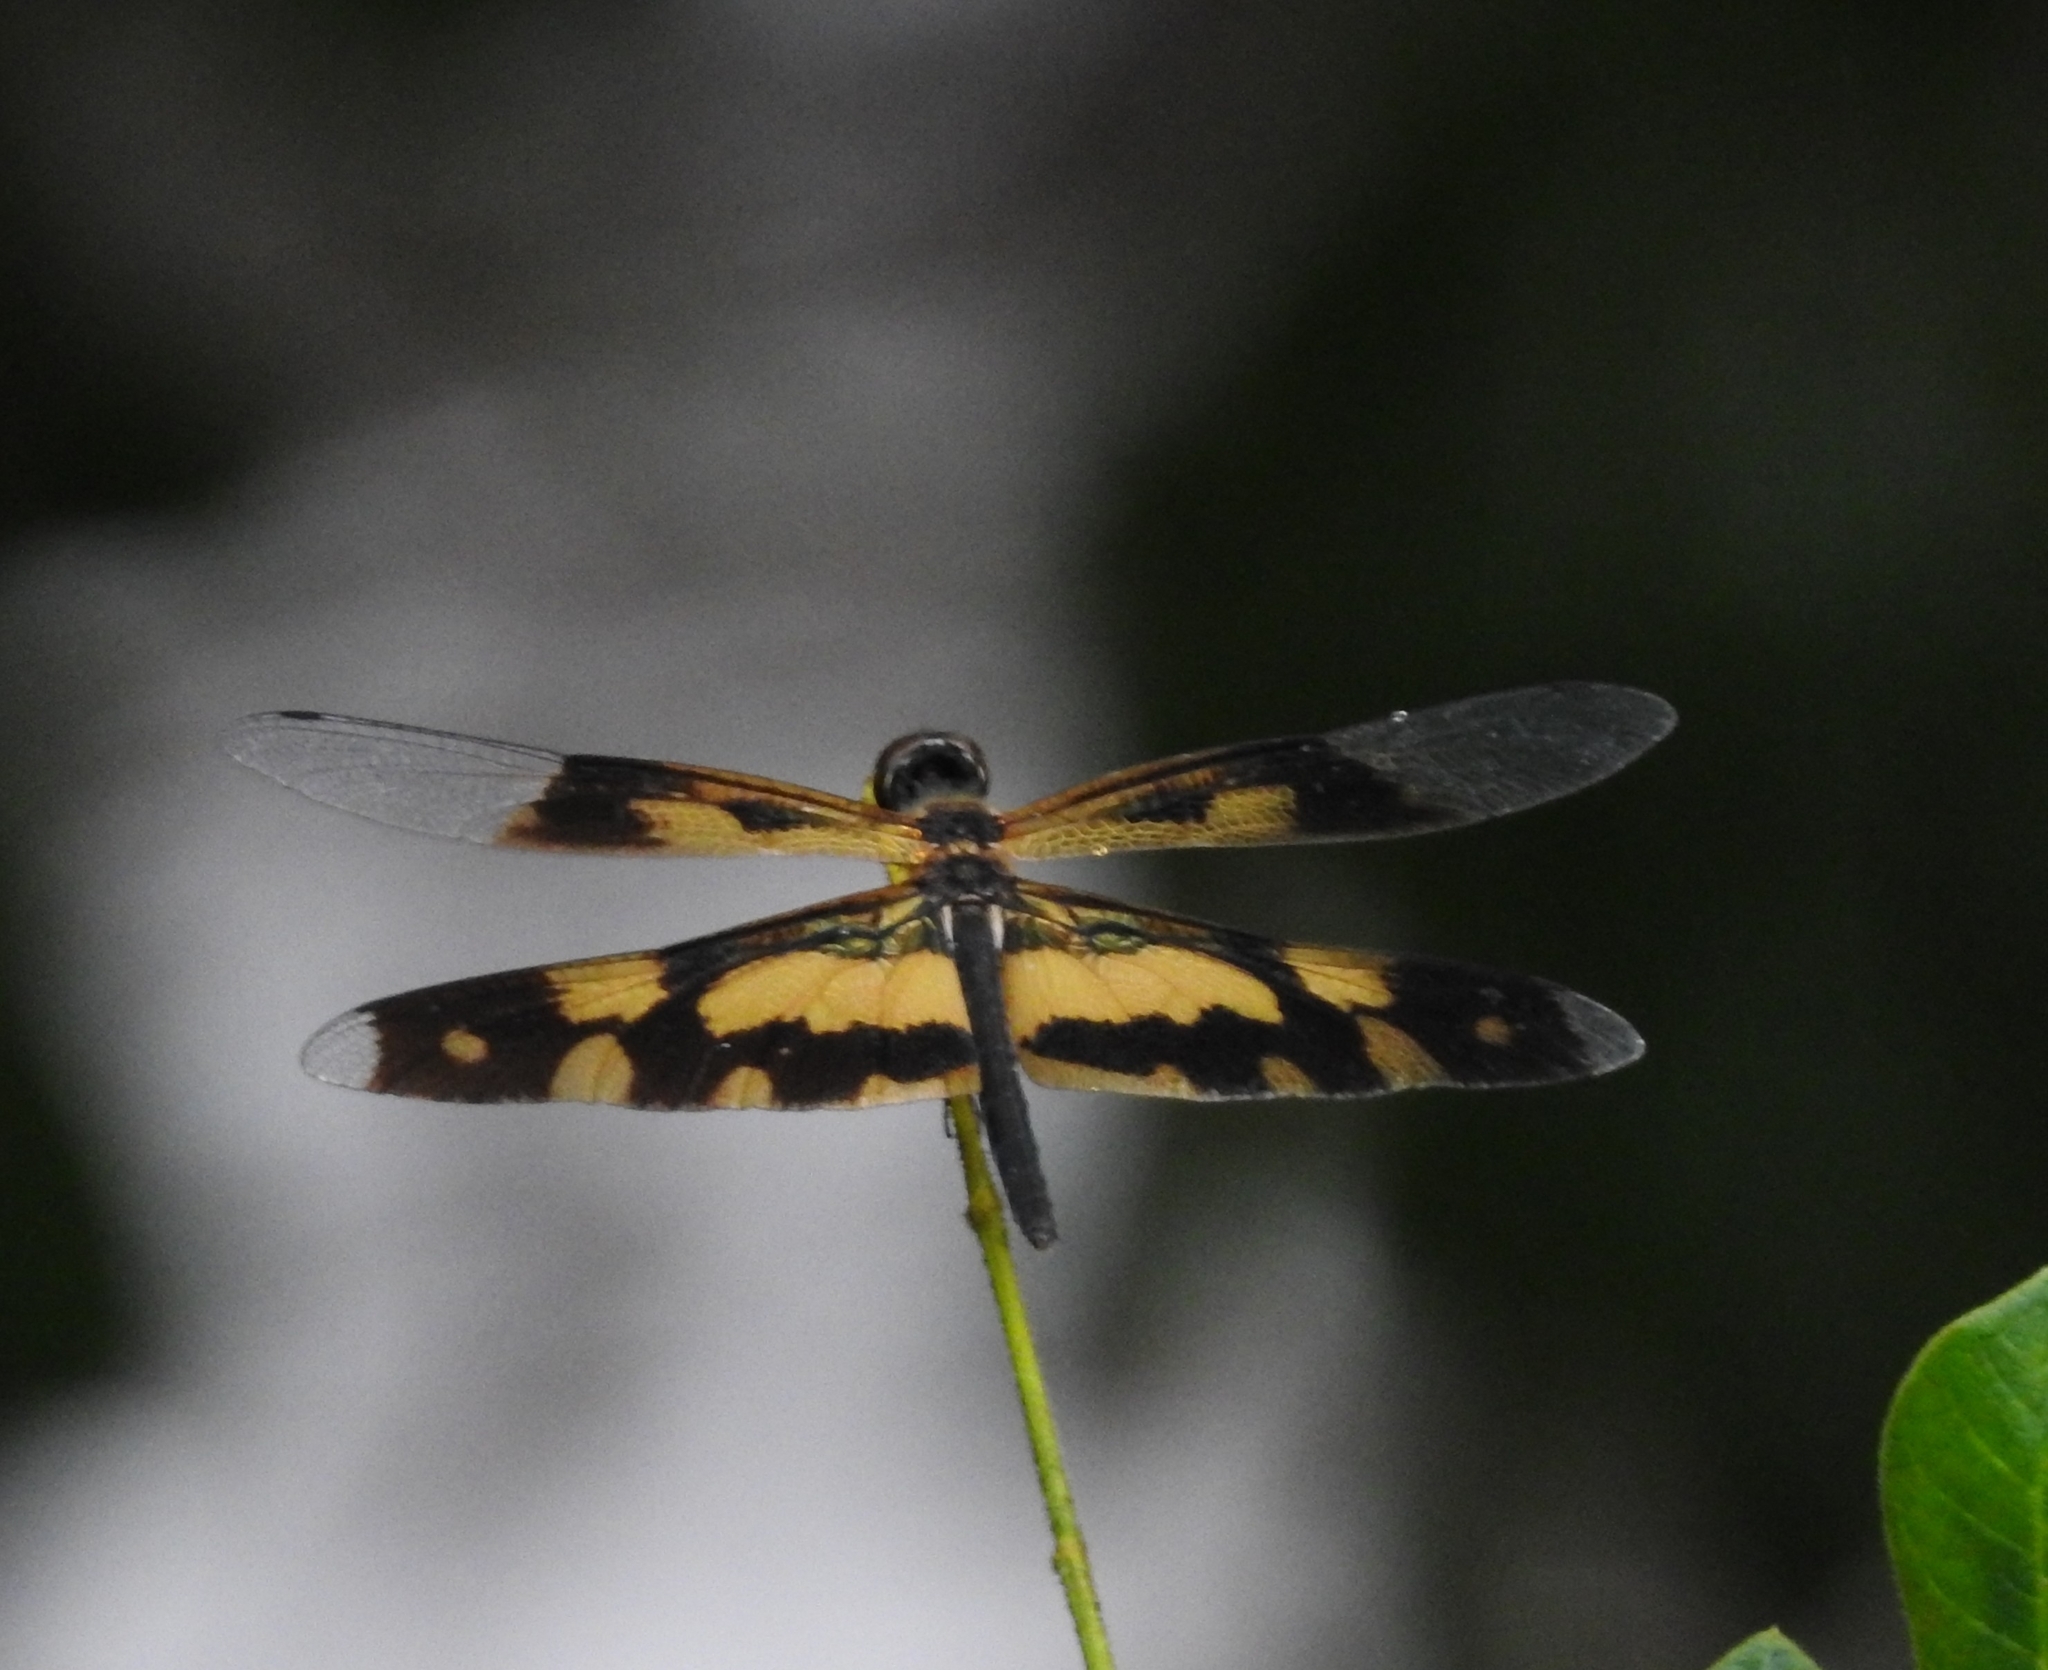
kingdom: Animalia
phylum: Arthropoda
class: Insecta
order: Odonata
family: Libellulidae
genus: Rhyothemis
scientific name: Rhyothemis variegata
